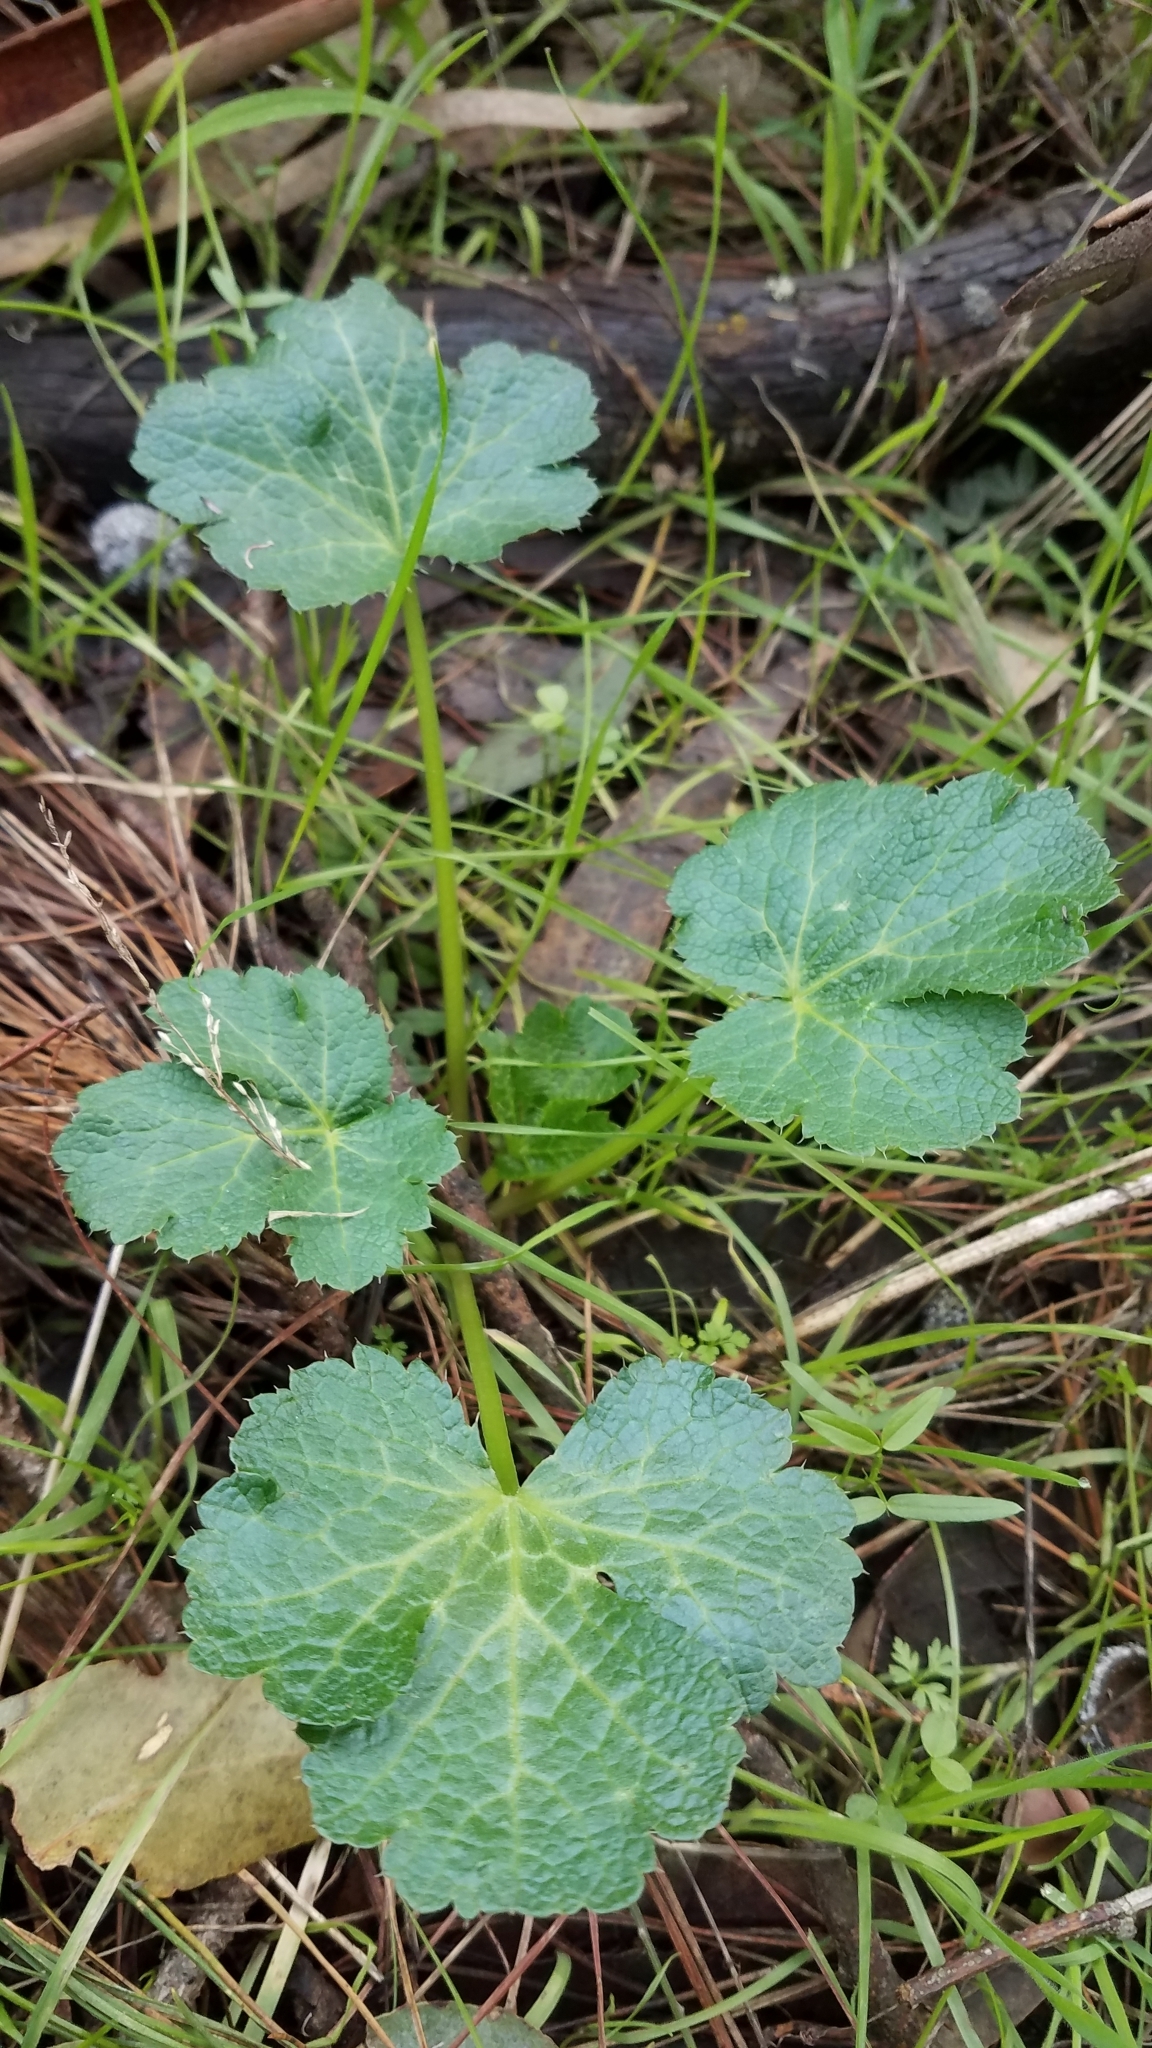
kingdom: Plantae
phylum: Tracheophyta
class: Magnoliopsida
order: Apiales
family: Apiaceae
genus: Sanicula
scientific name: Sanicula crassicaulis
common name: Western snakeroot
